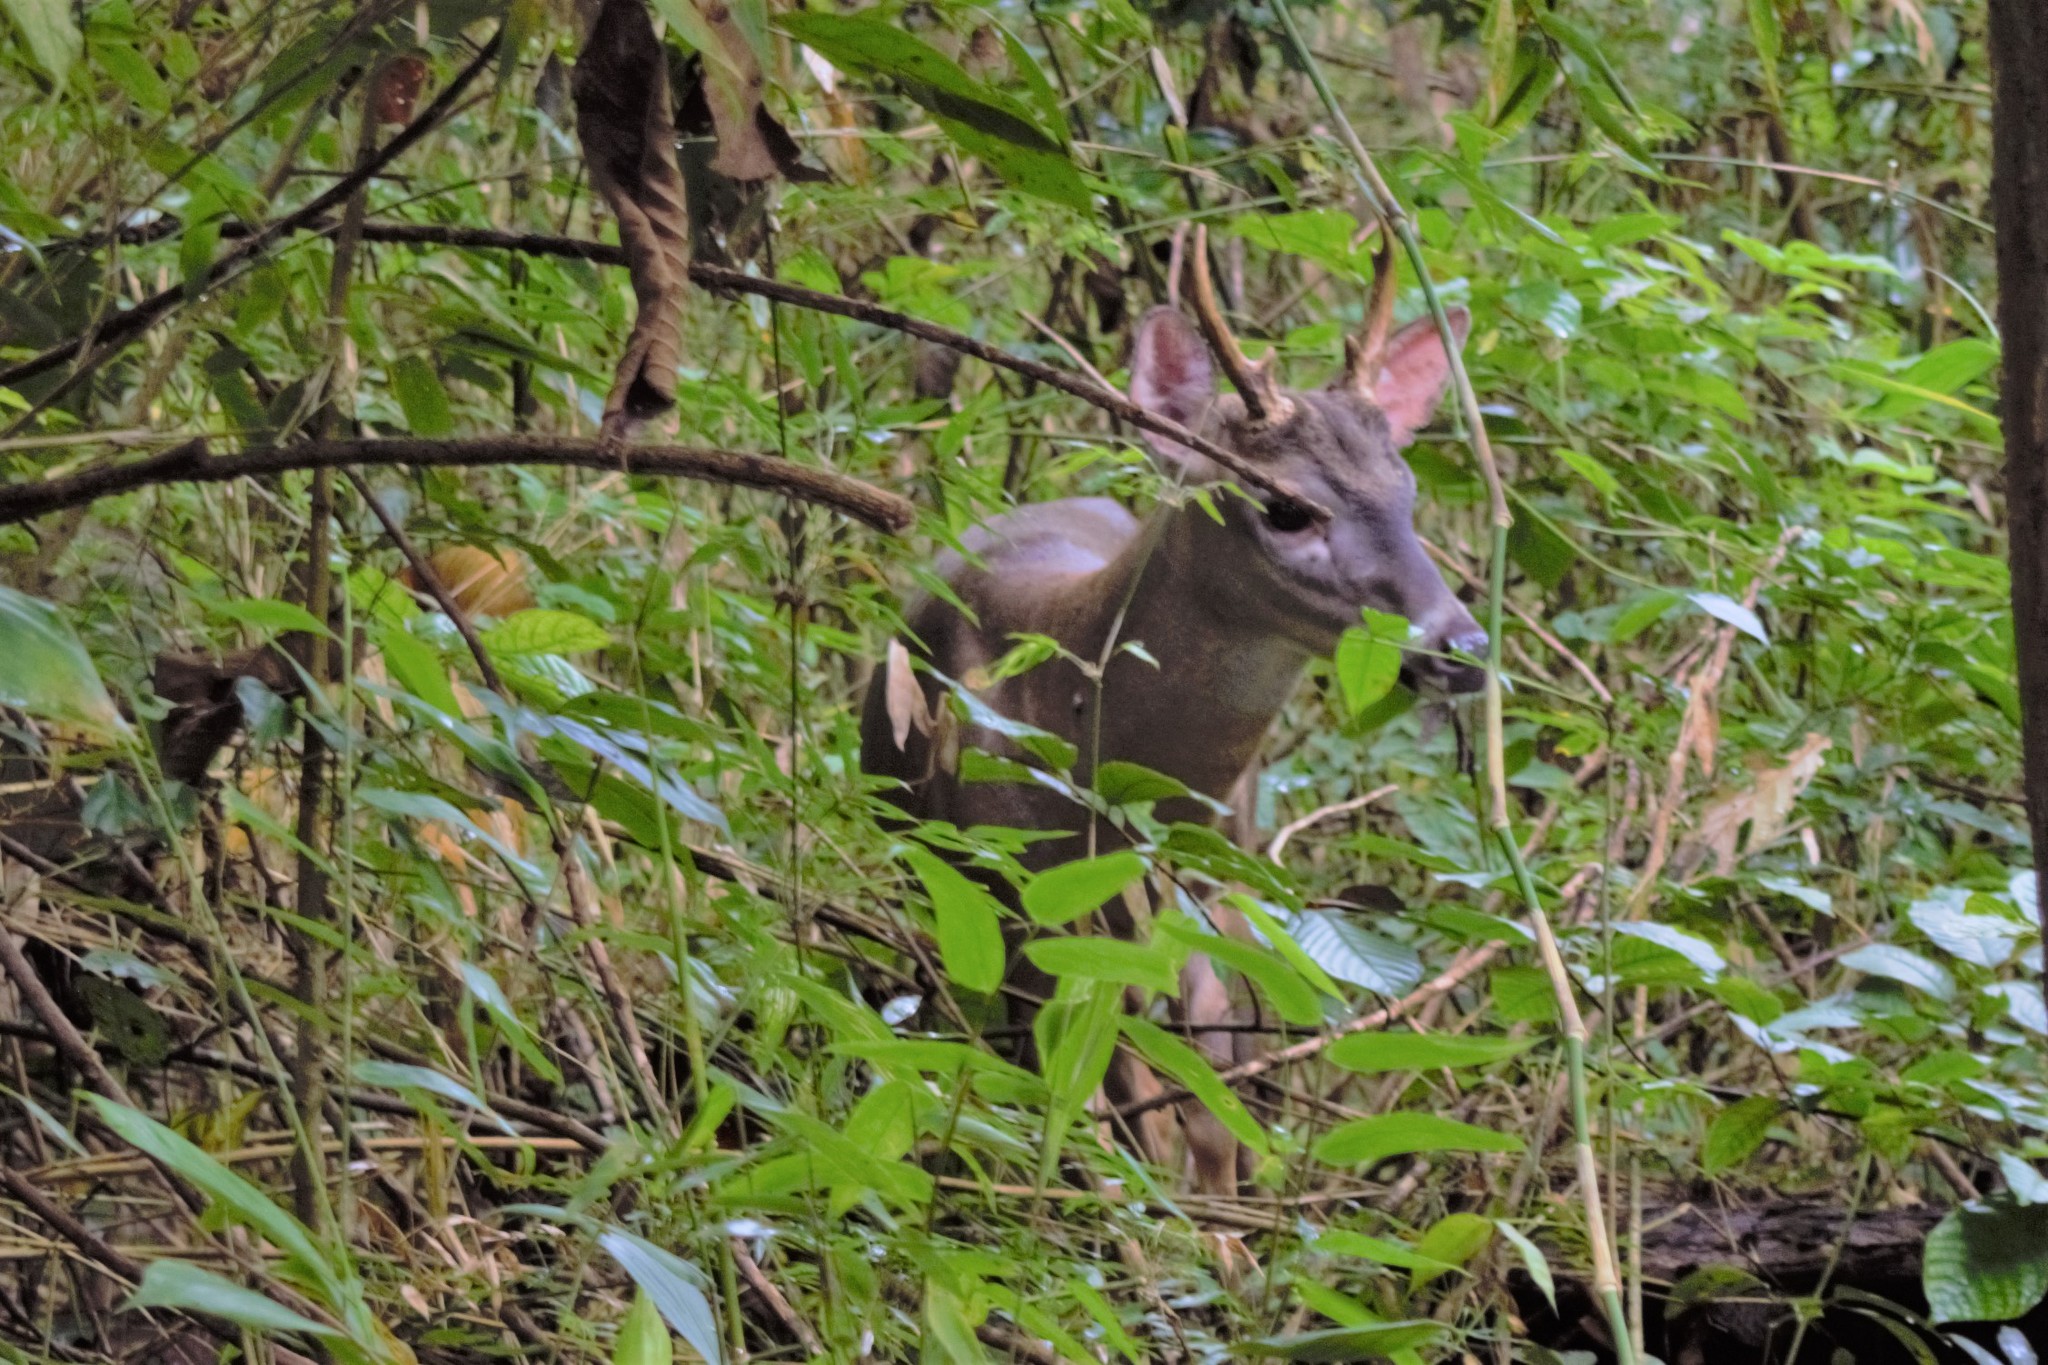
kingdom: Animalia
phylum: Chordata
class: Mammalia
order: Artiodactyla
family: Cervidae
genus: Odocoileus
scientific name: Odocoileus virginianus
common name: White-tailed deer
